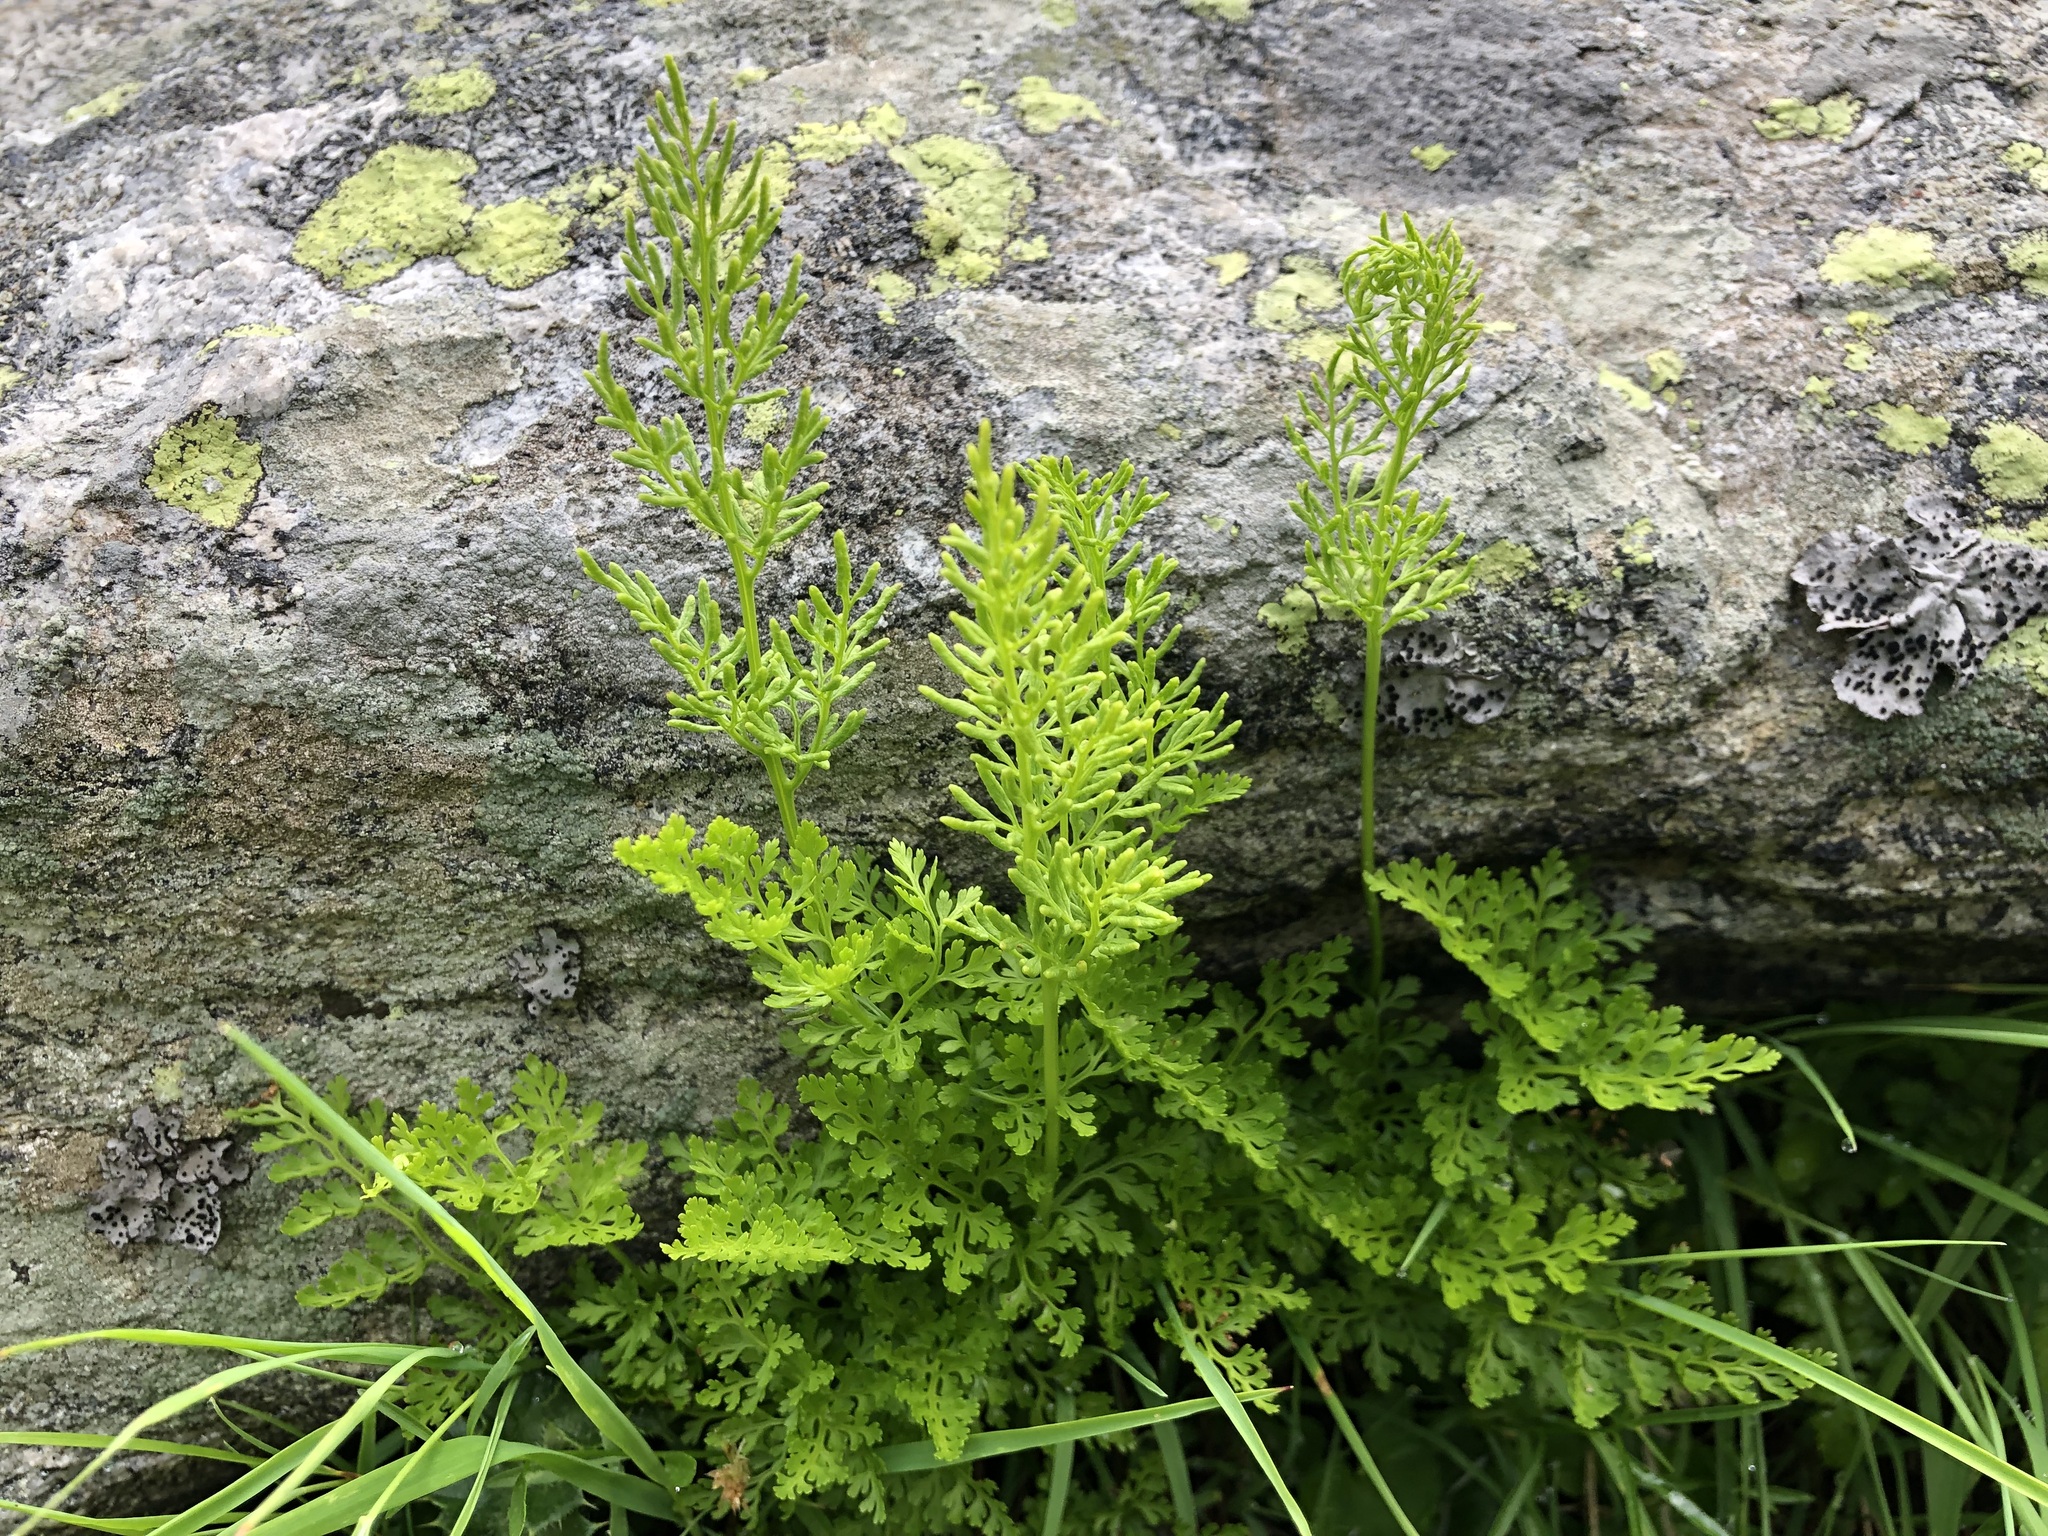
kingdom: Plantae
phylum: Tracheophyta
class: Polypodiopsida
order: Polypodiales
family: Pteridaceae
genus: Cryptogramma
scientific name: Cryptogramma crispa
